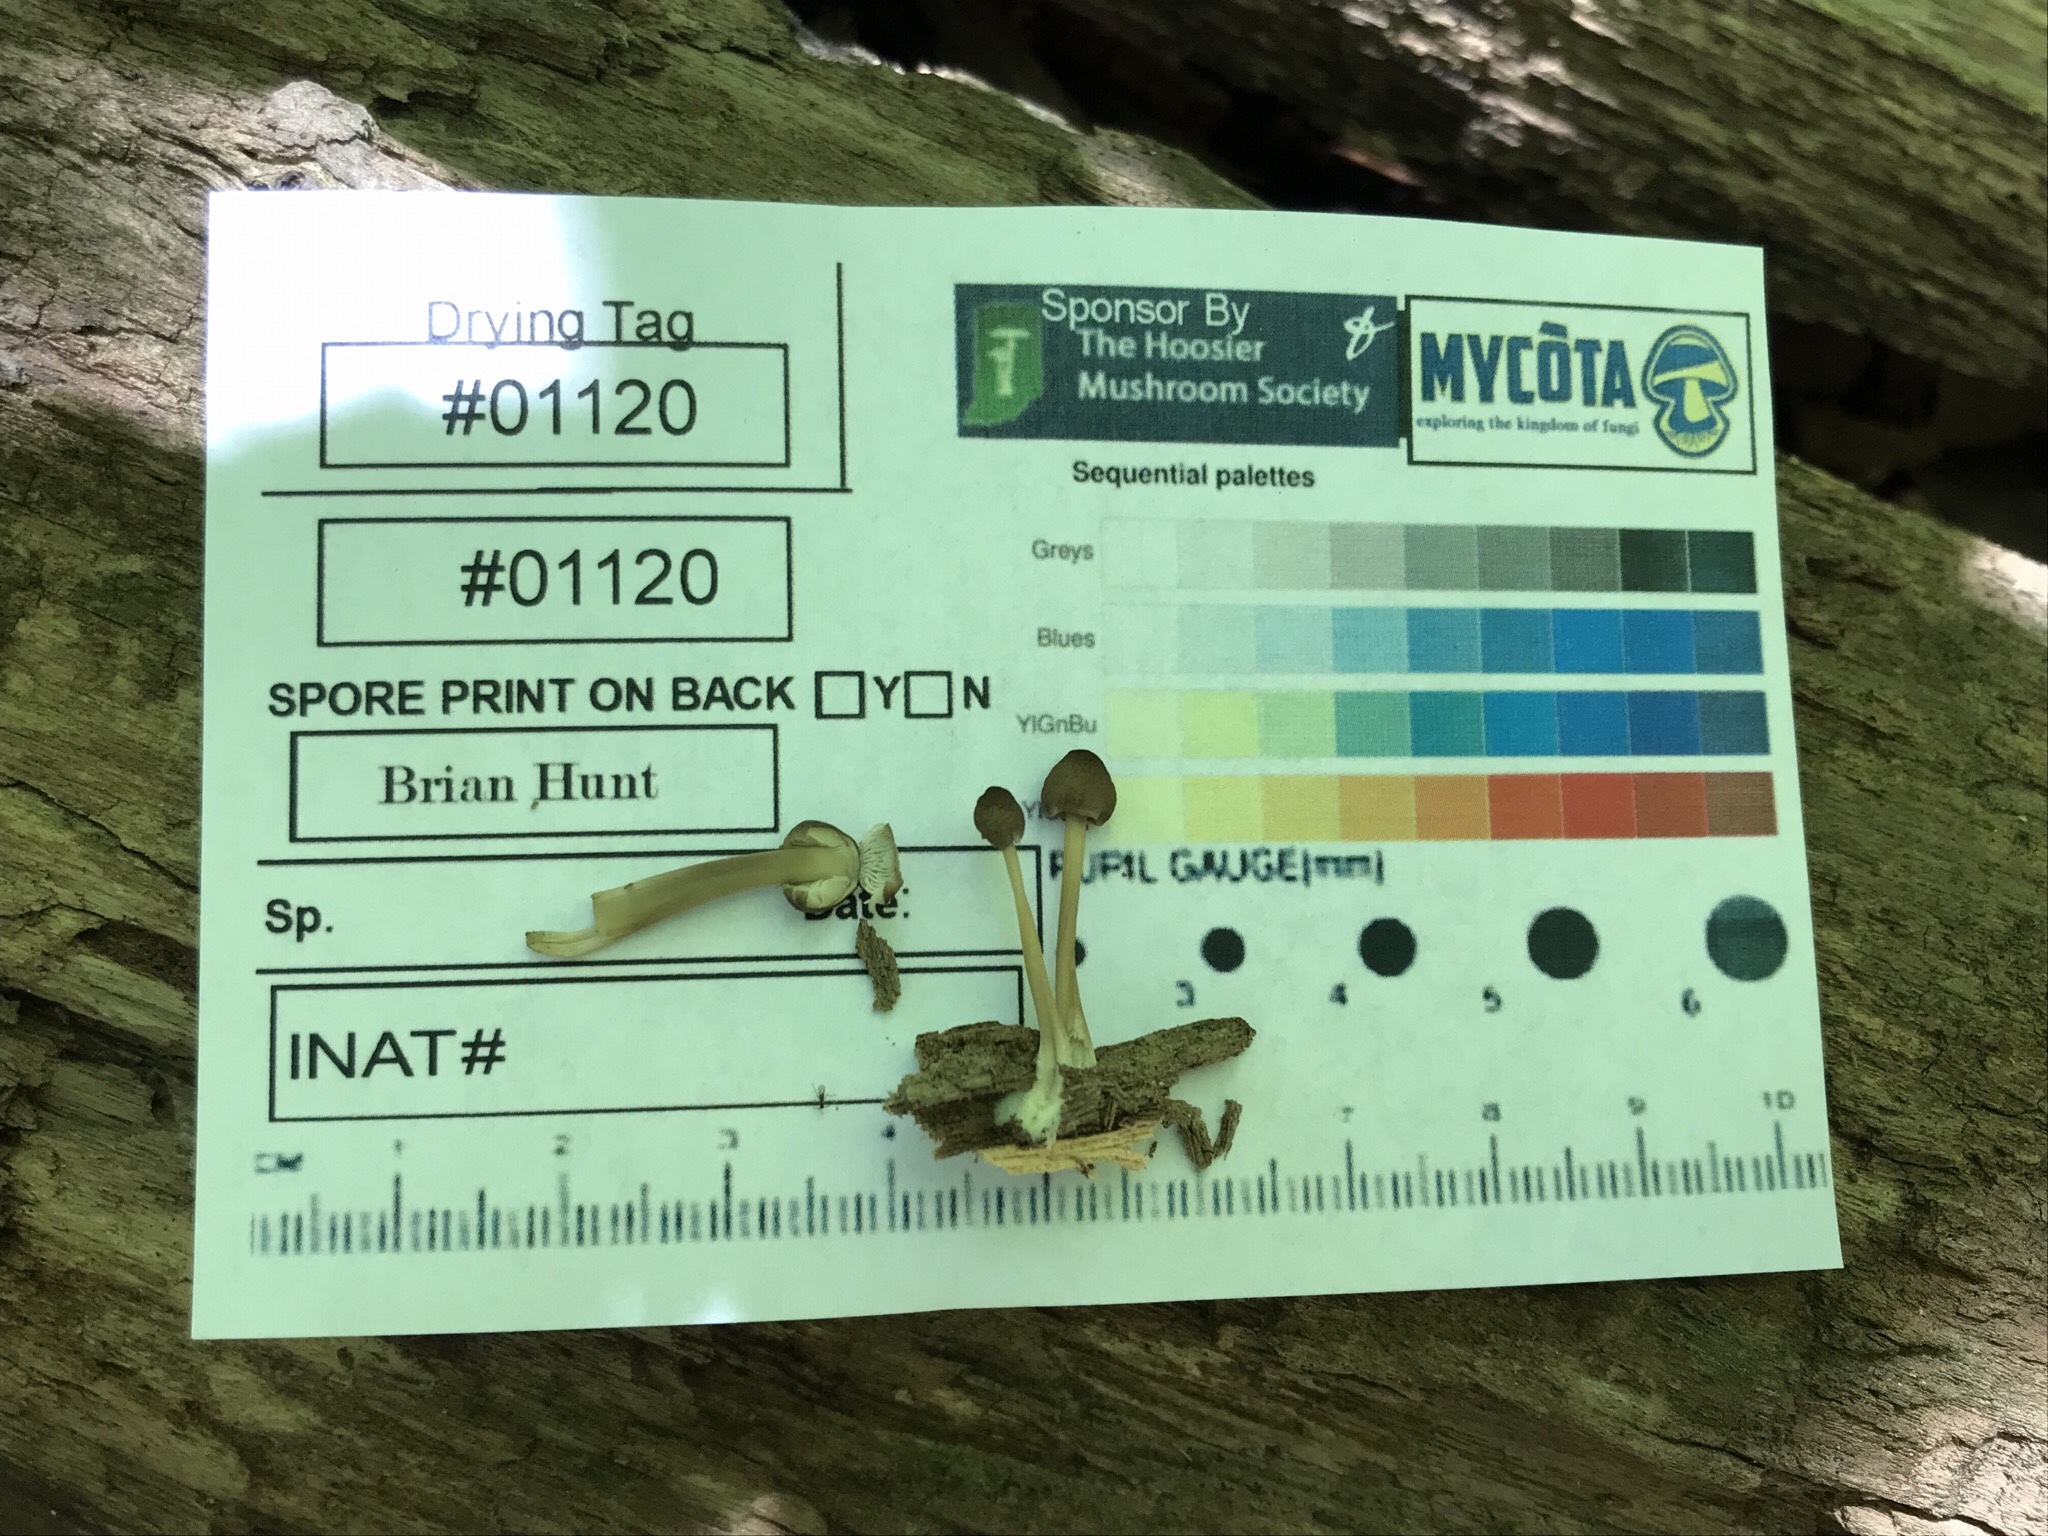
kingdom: Fungi
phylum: Basidiomycota
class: Agaricomycetes
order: Agaricales
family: Mycenaceae
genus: Mycena
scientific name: Mycena galericulata
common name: Bonnet mycena
